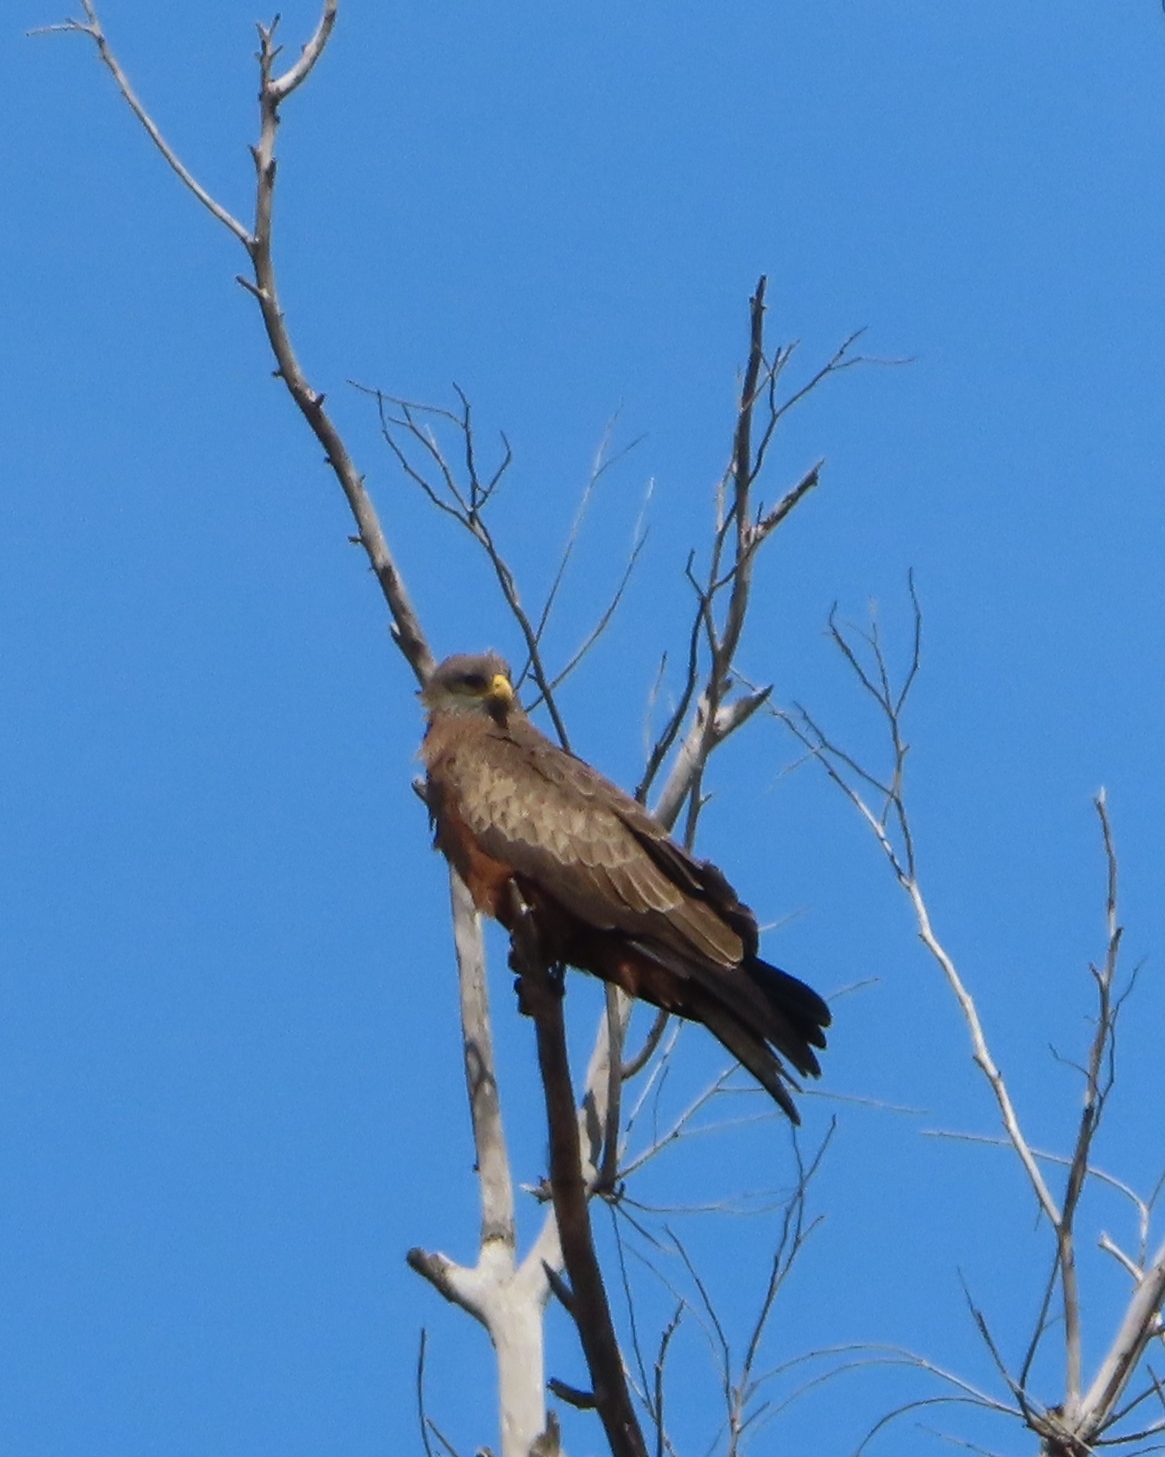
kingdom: Animalia
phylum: Chordata
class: Aves
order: Accipitriformes
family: Accipitridae
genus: Milvus
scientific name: Milvus migrans
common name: Black kite
